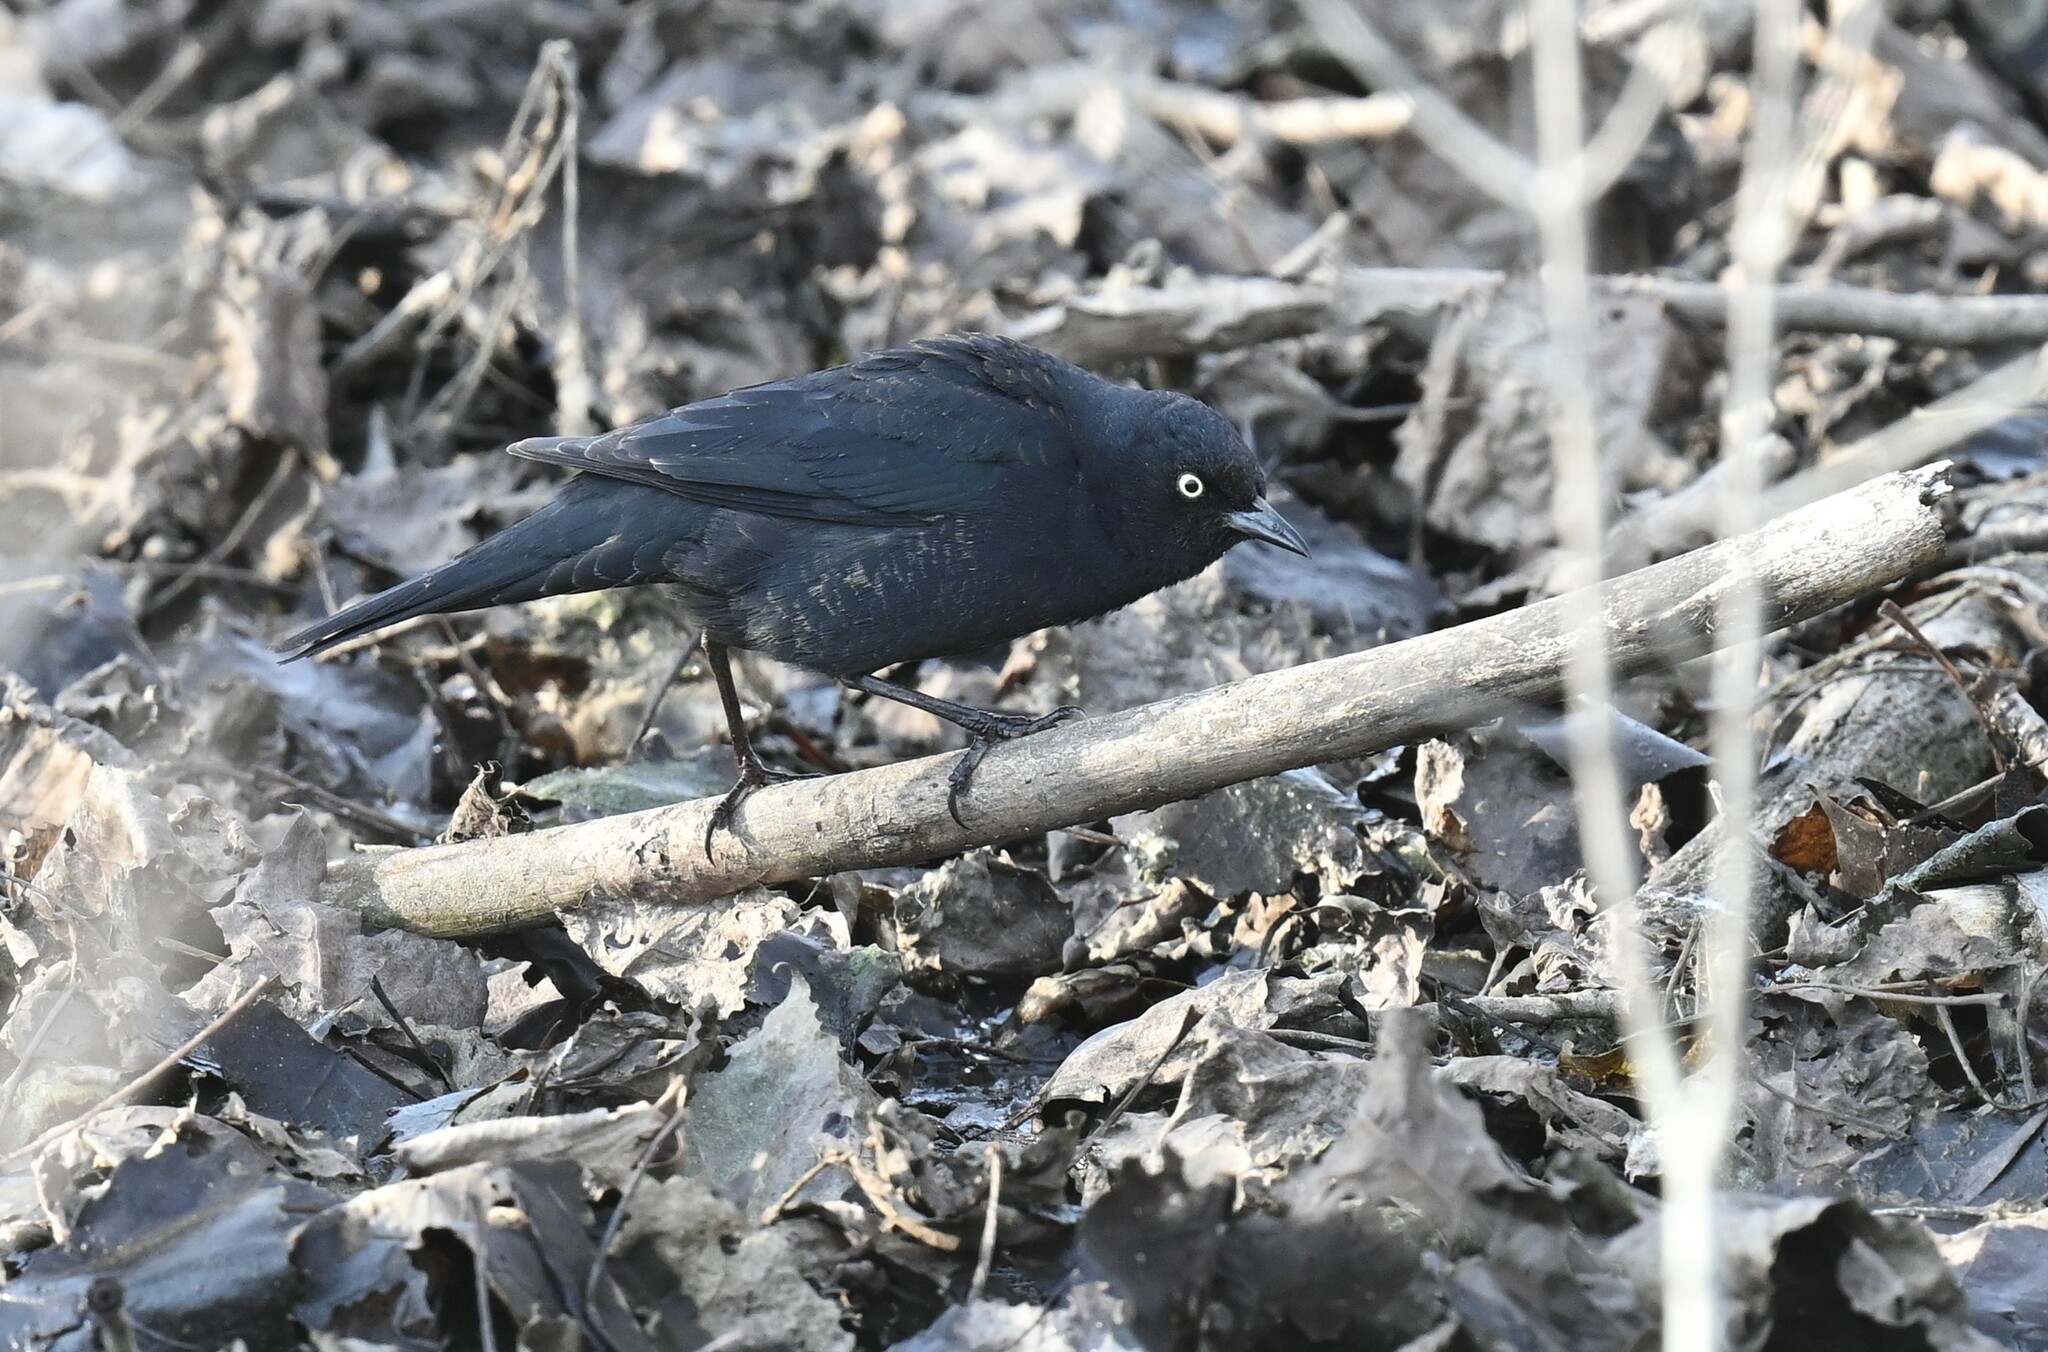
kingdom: Animalia
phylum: Chordata
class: Aves
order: Passeriformes
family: Icteridae
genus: Euphagus
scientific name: Euphagus carolinus
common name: Rusty blackbird
